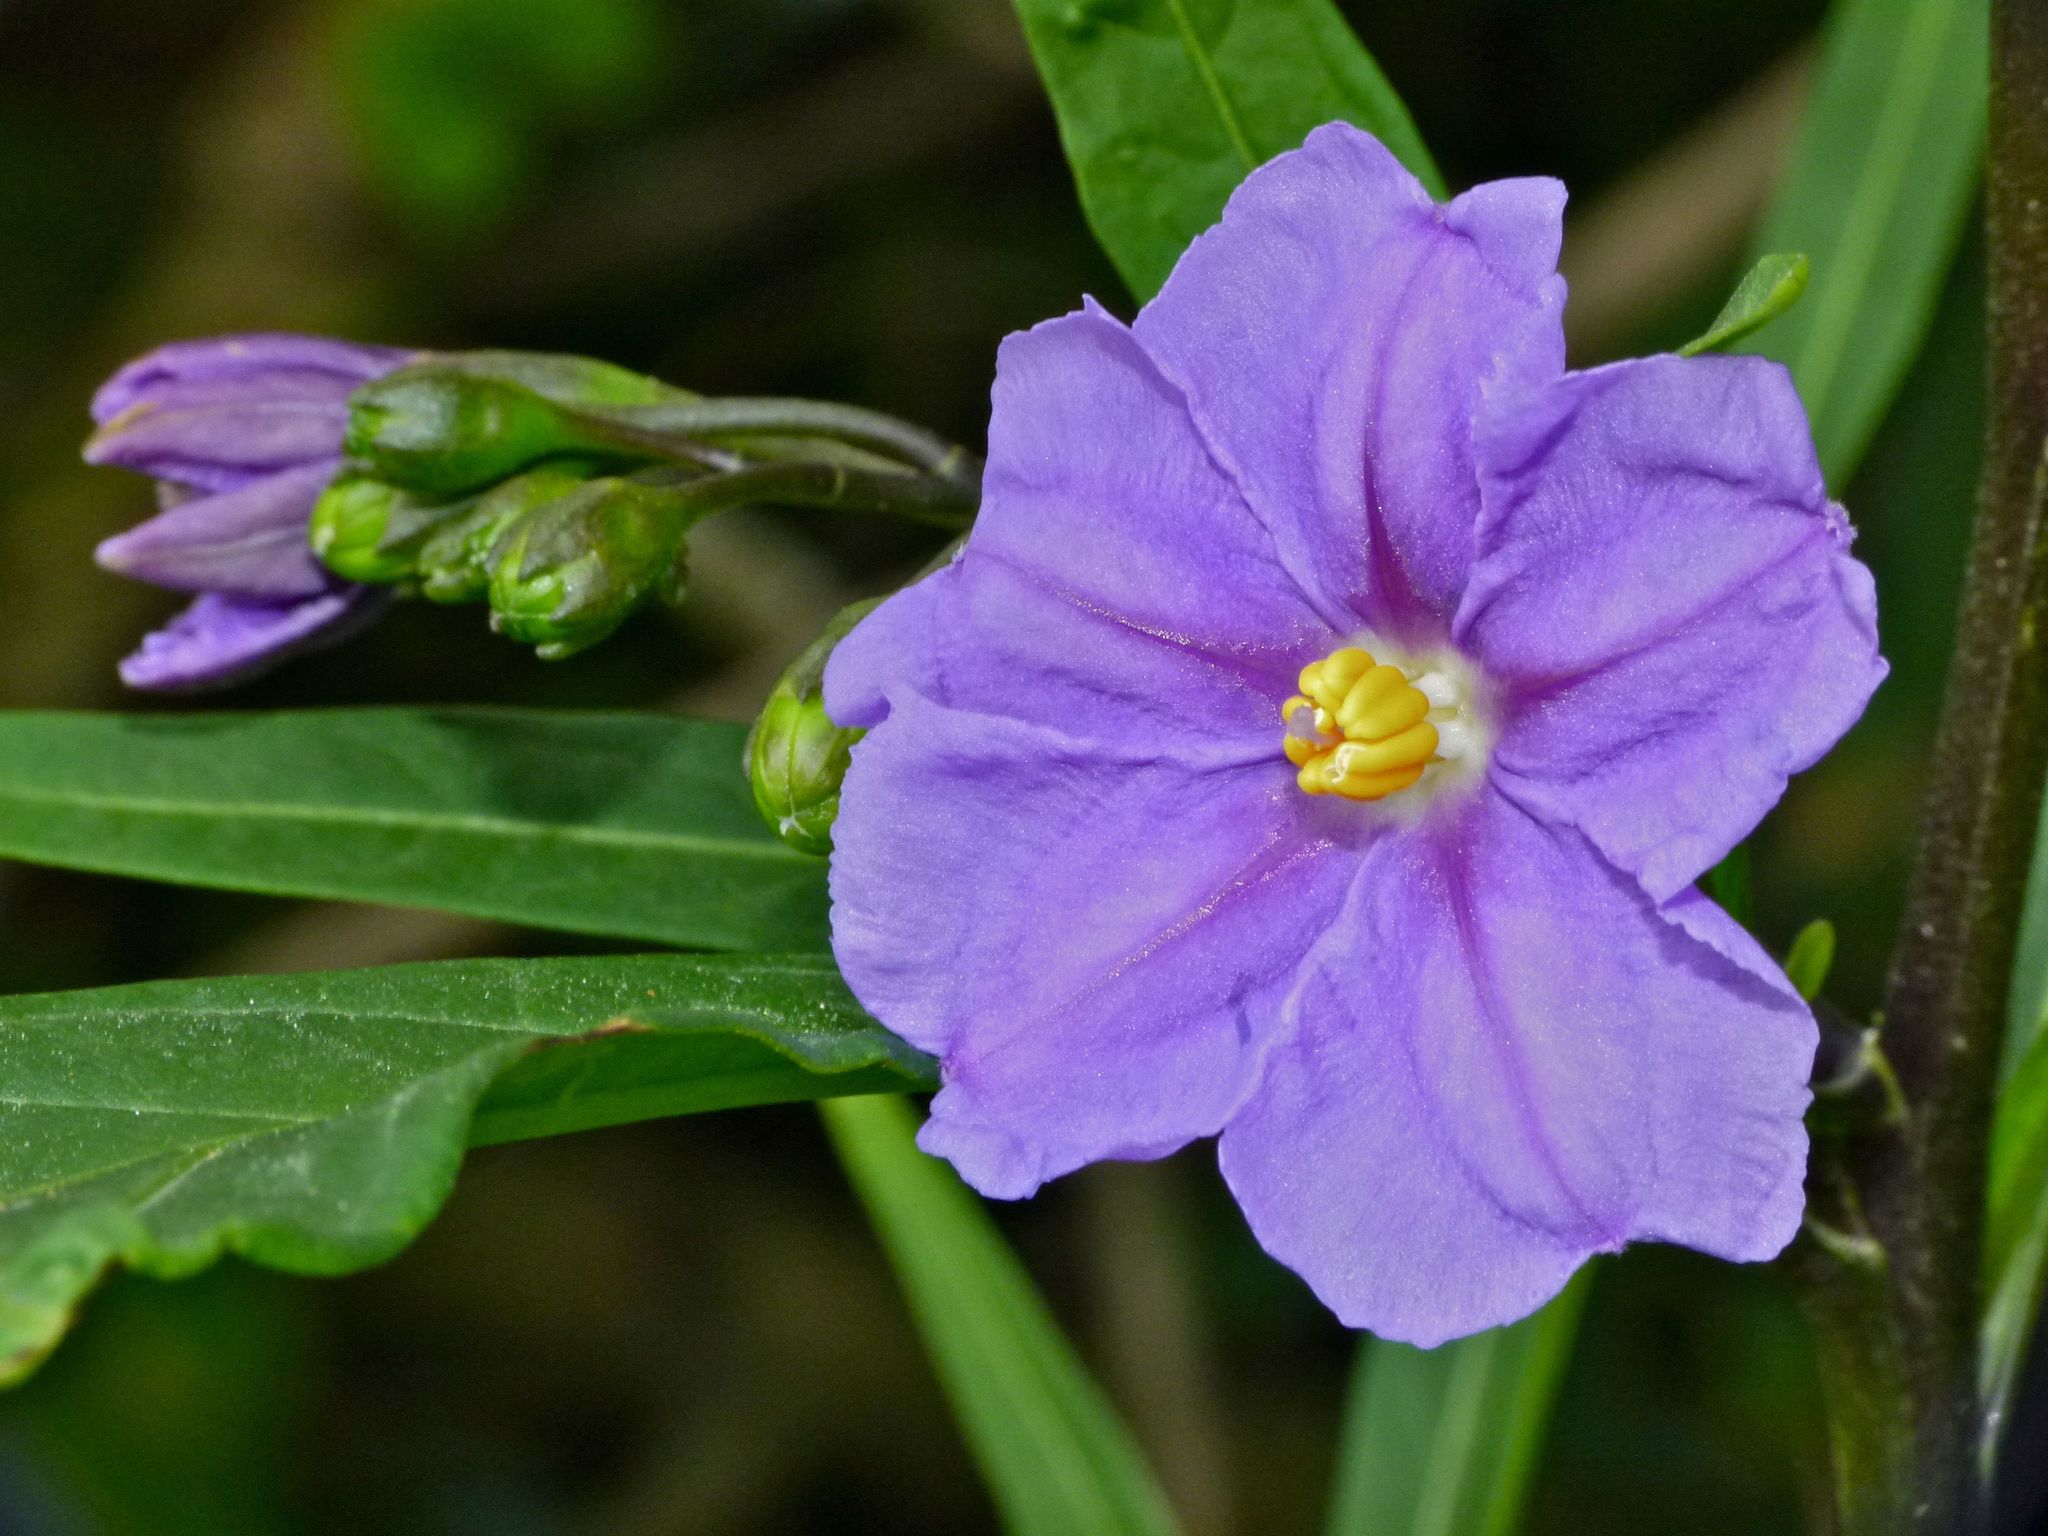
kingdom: Plantae
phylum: Tracheophyta
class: Magnoliopsida
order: Solanales
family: Solanaceae
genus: Solanum
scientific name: Solanum laciniatum
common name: Kangaroo-apple
